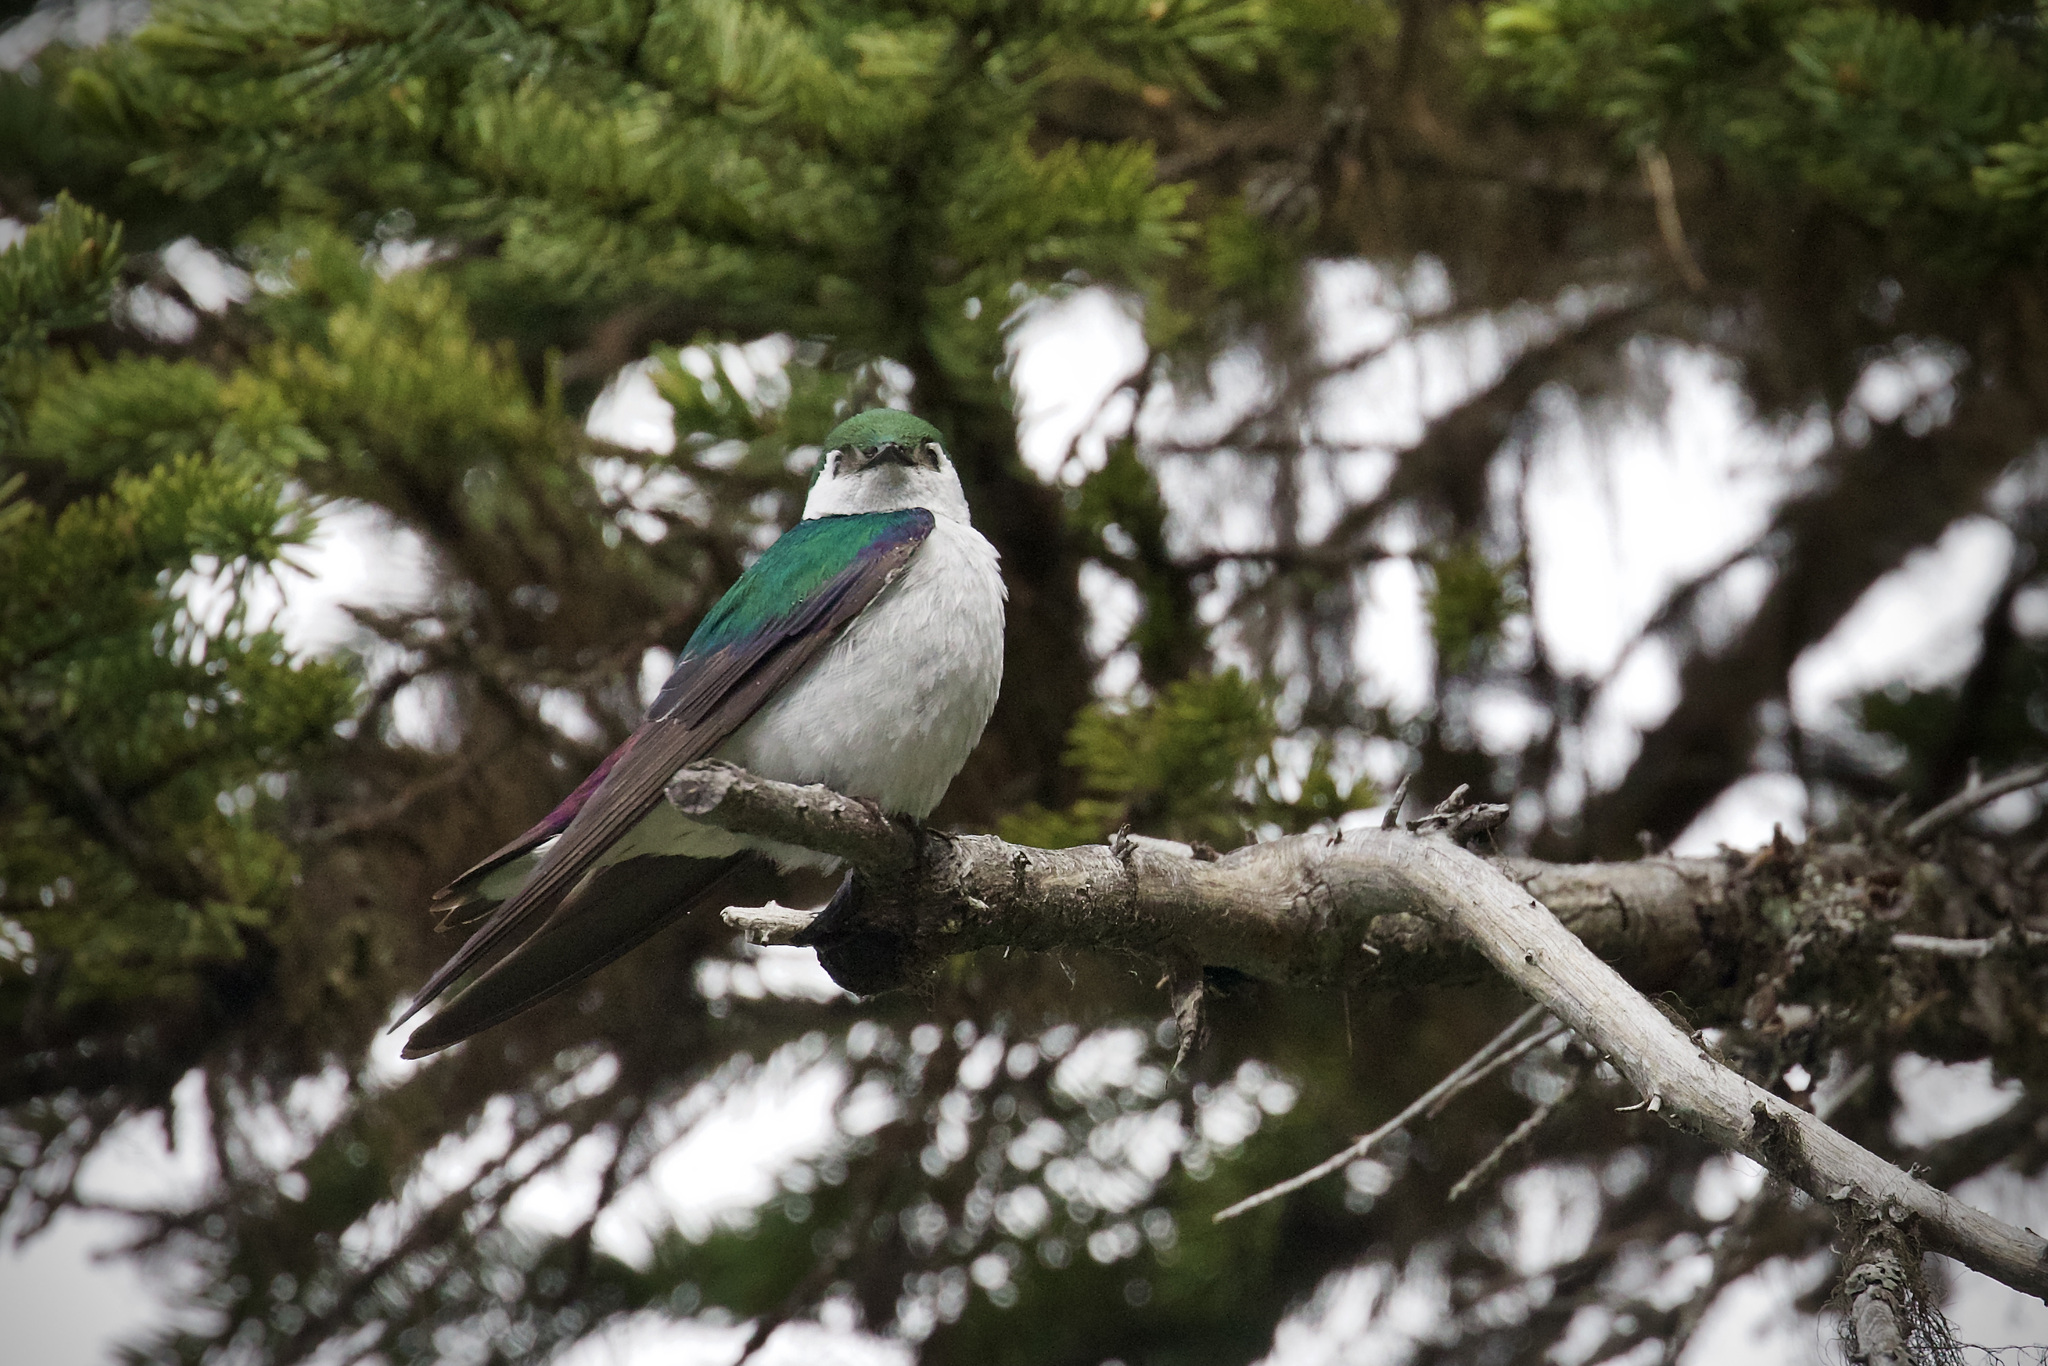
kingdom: Animalia
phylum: Chordata
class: Aves
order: Passeriformes
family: Hirundinidae
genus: Tachycineta
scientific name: Tachycineta thalassina
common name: Violet-green swallow
